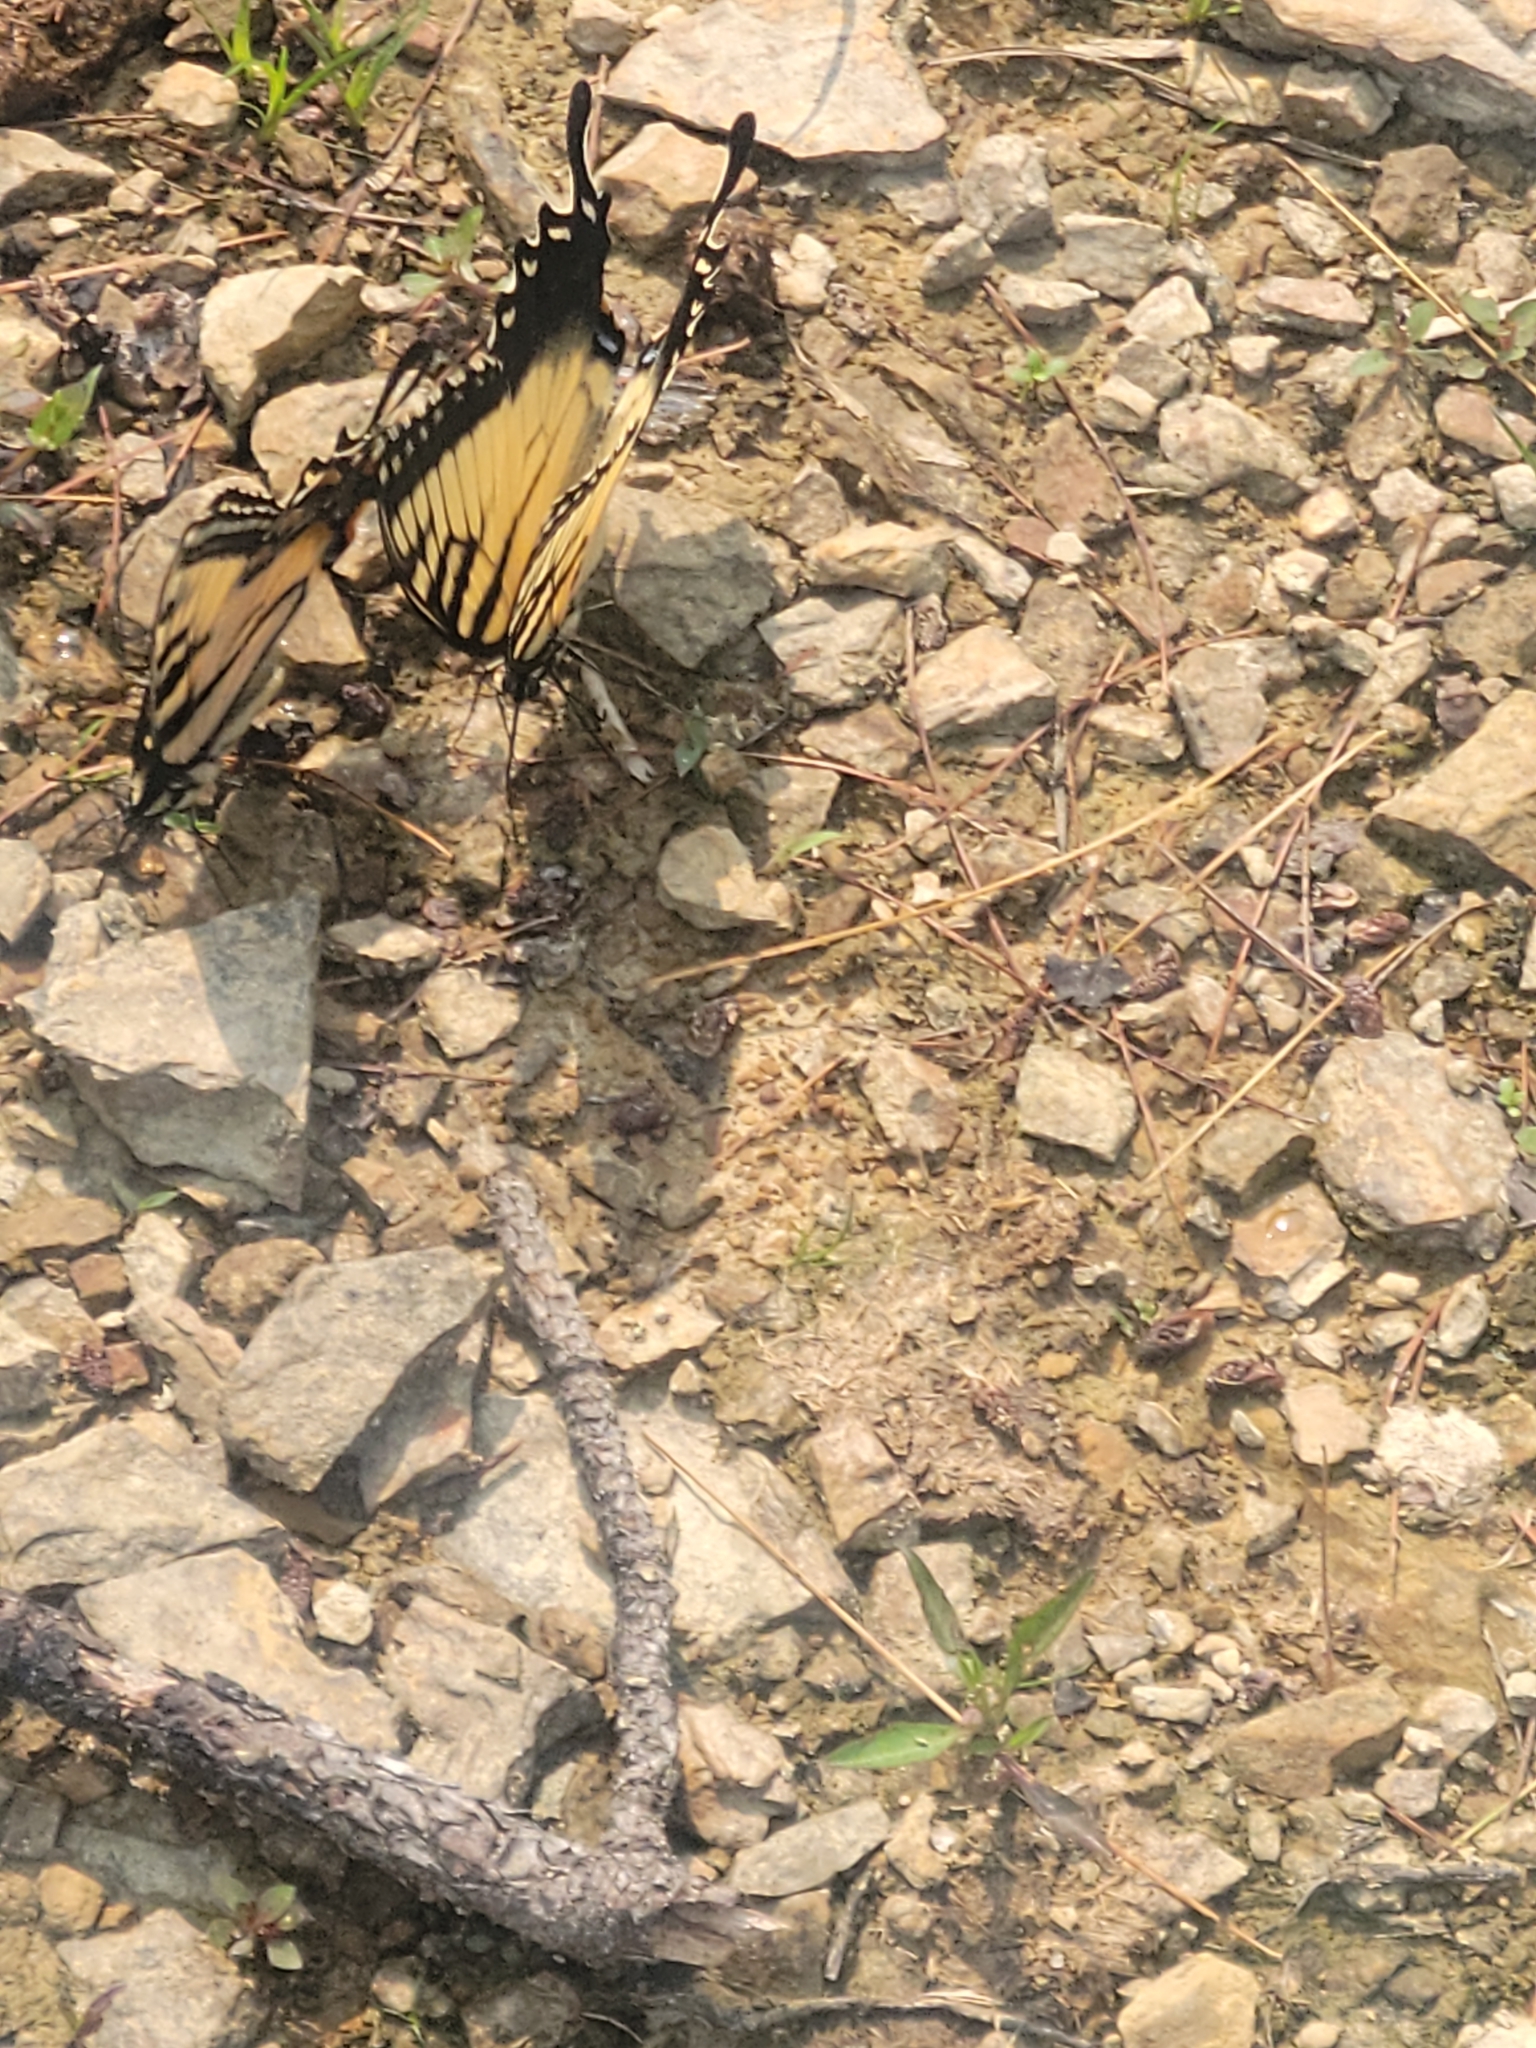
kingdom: Animalia
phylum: Arthropoda
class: Insecta
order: Lepidoptera
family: Papilionidae
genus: Papilio
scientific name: Papilio glaucus
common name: Tiger swallowtail
